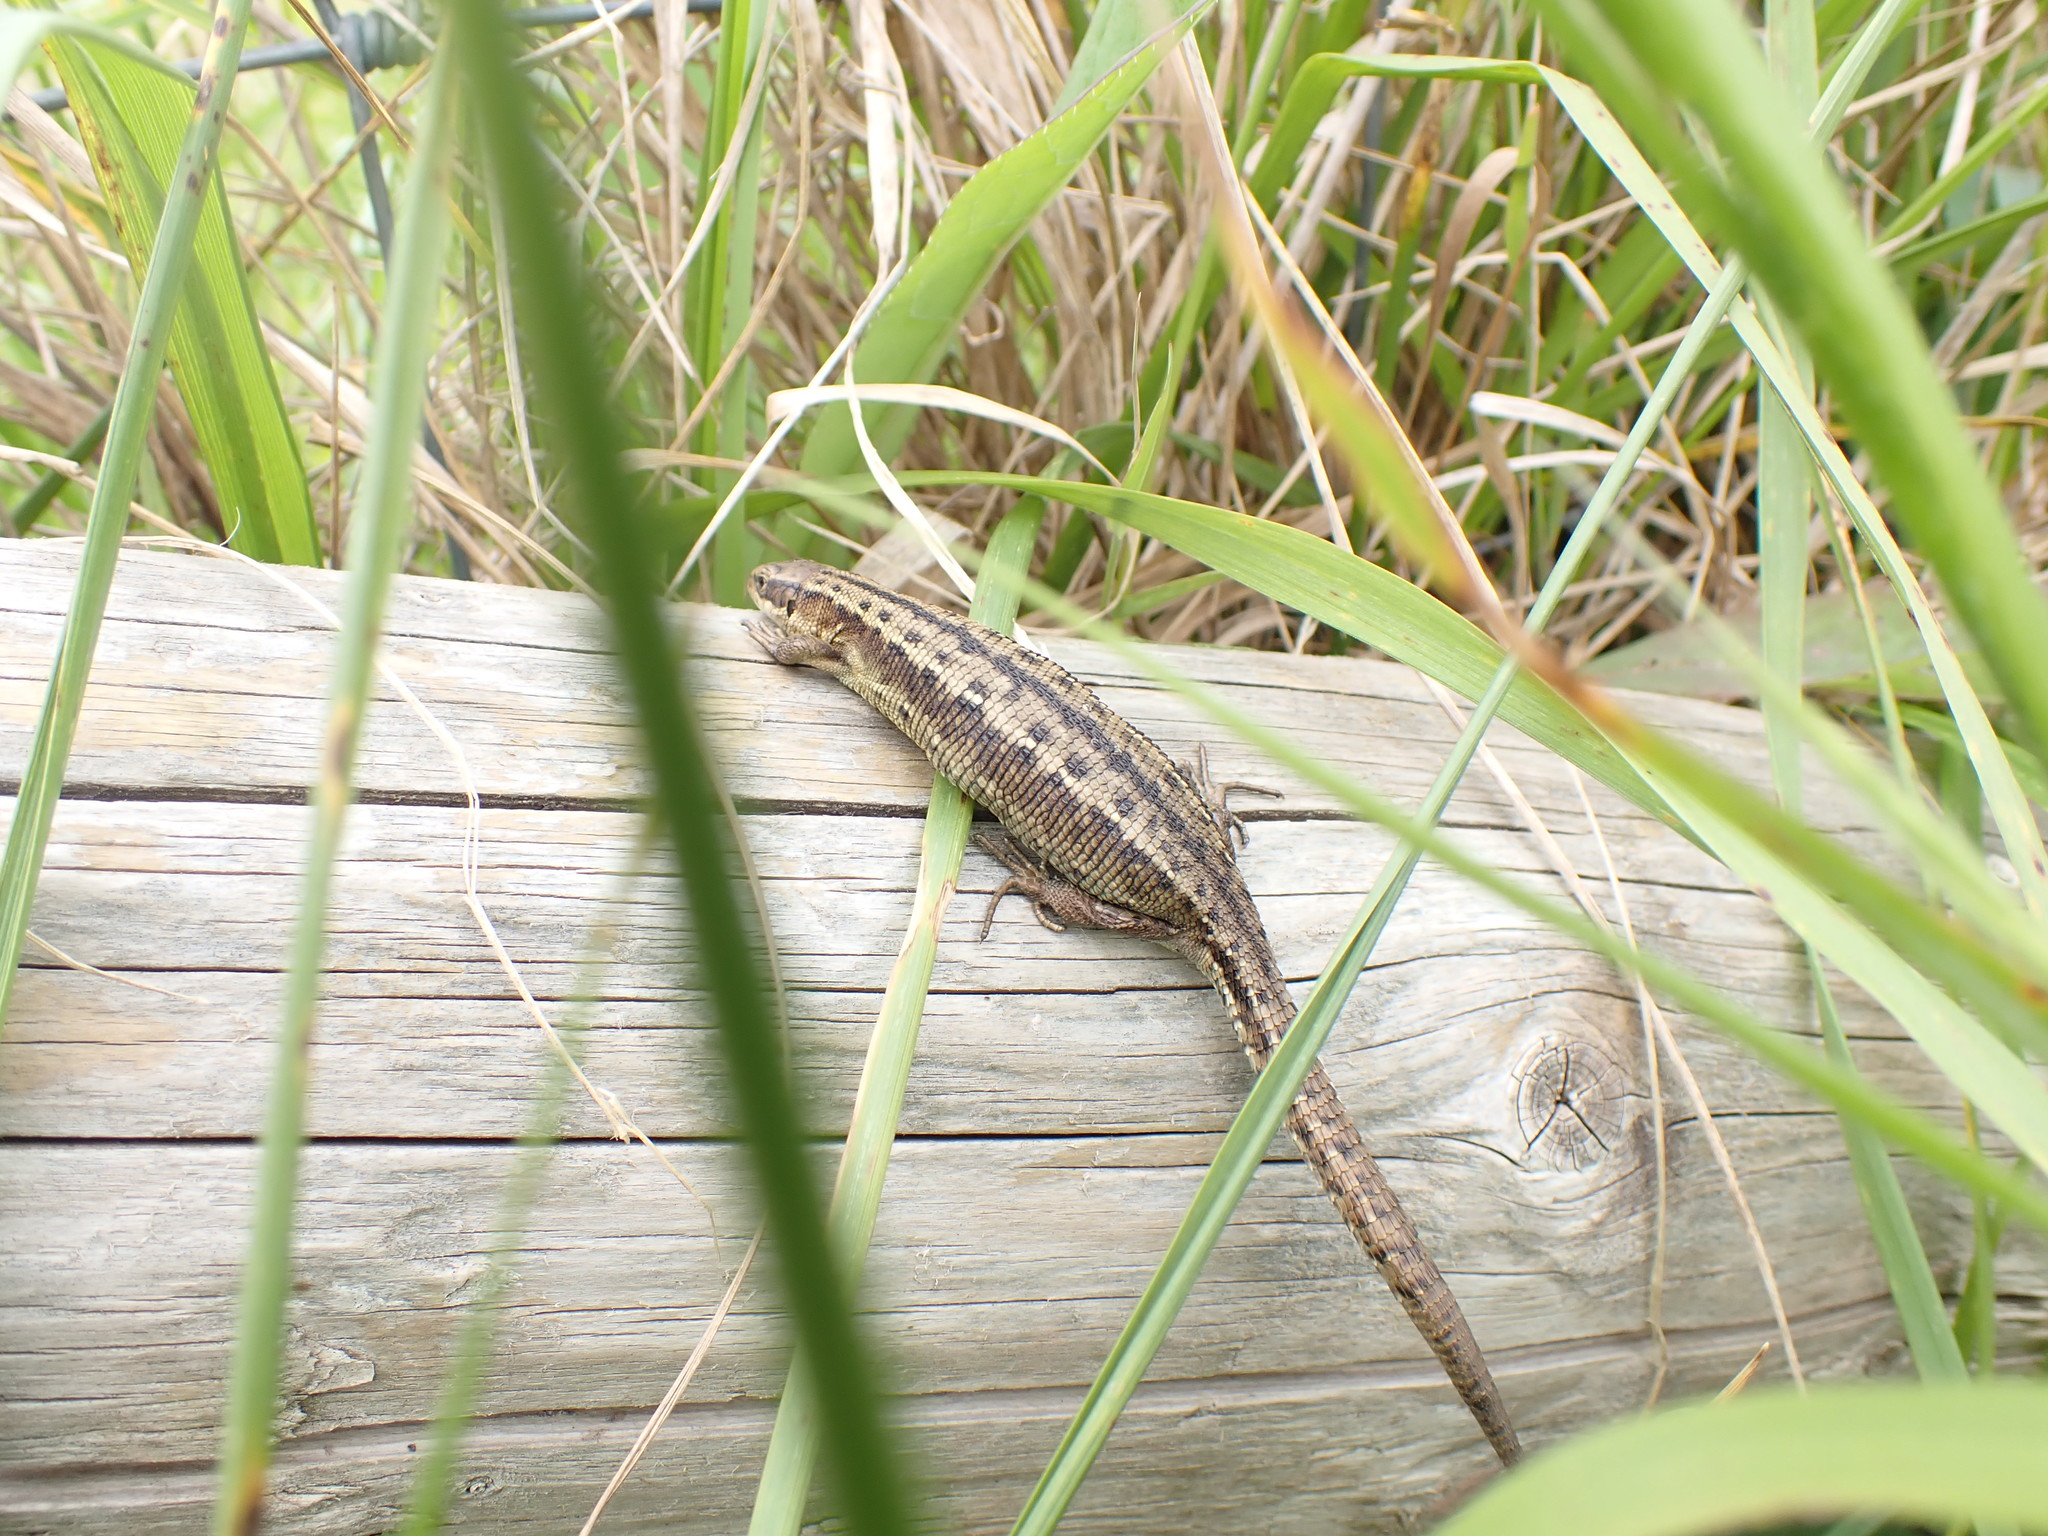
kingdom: Animalia
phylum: Chordata
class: Squamata
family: Lacertidae
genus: Zootoca
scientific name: Zootoca vivipara
